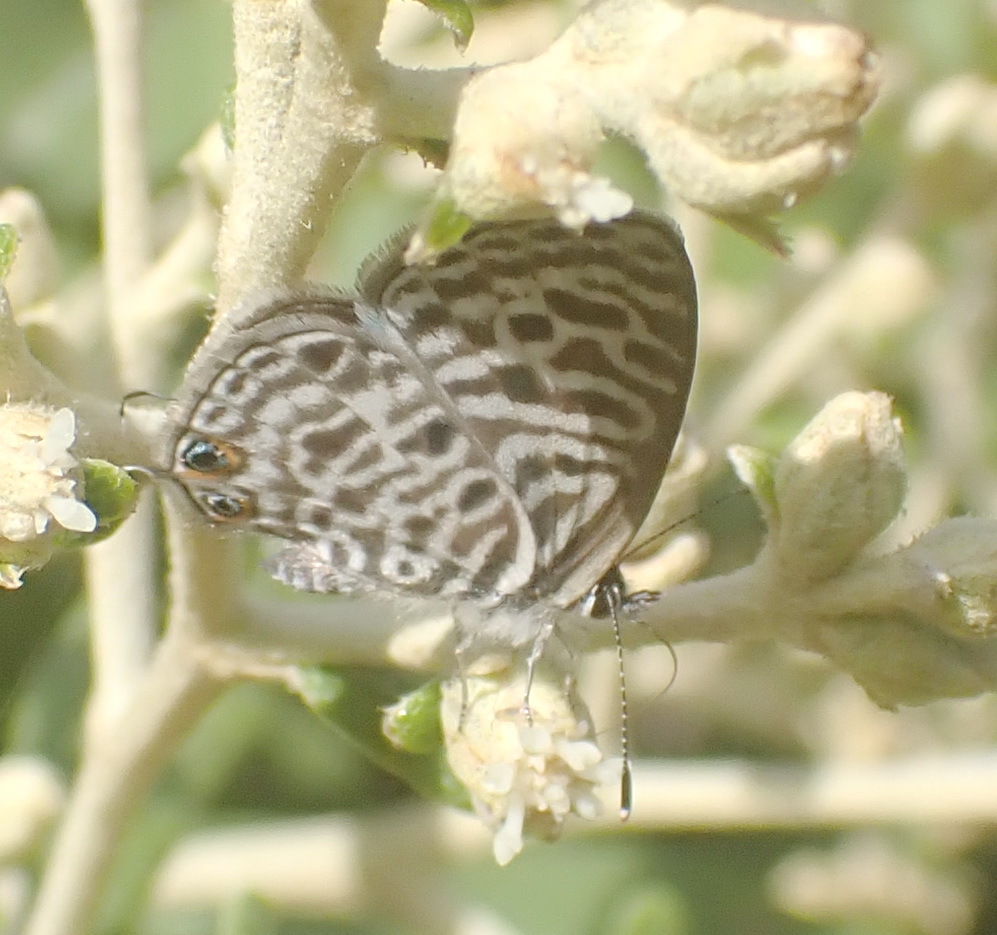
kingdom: Animalia
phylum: Arthropoda
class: Insecta
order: Lepidoptera
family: Lycaenidae
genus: Leptotes
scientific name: Leptotes
